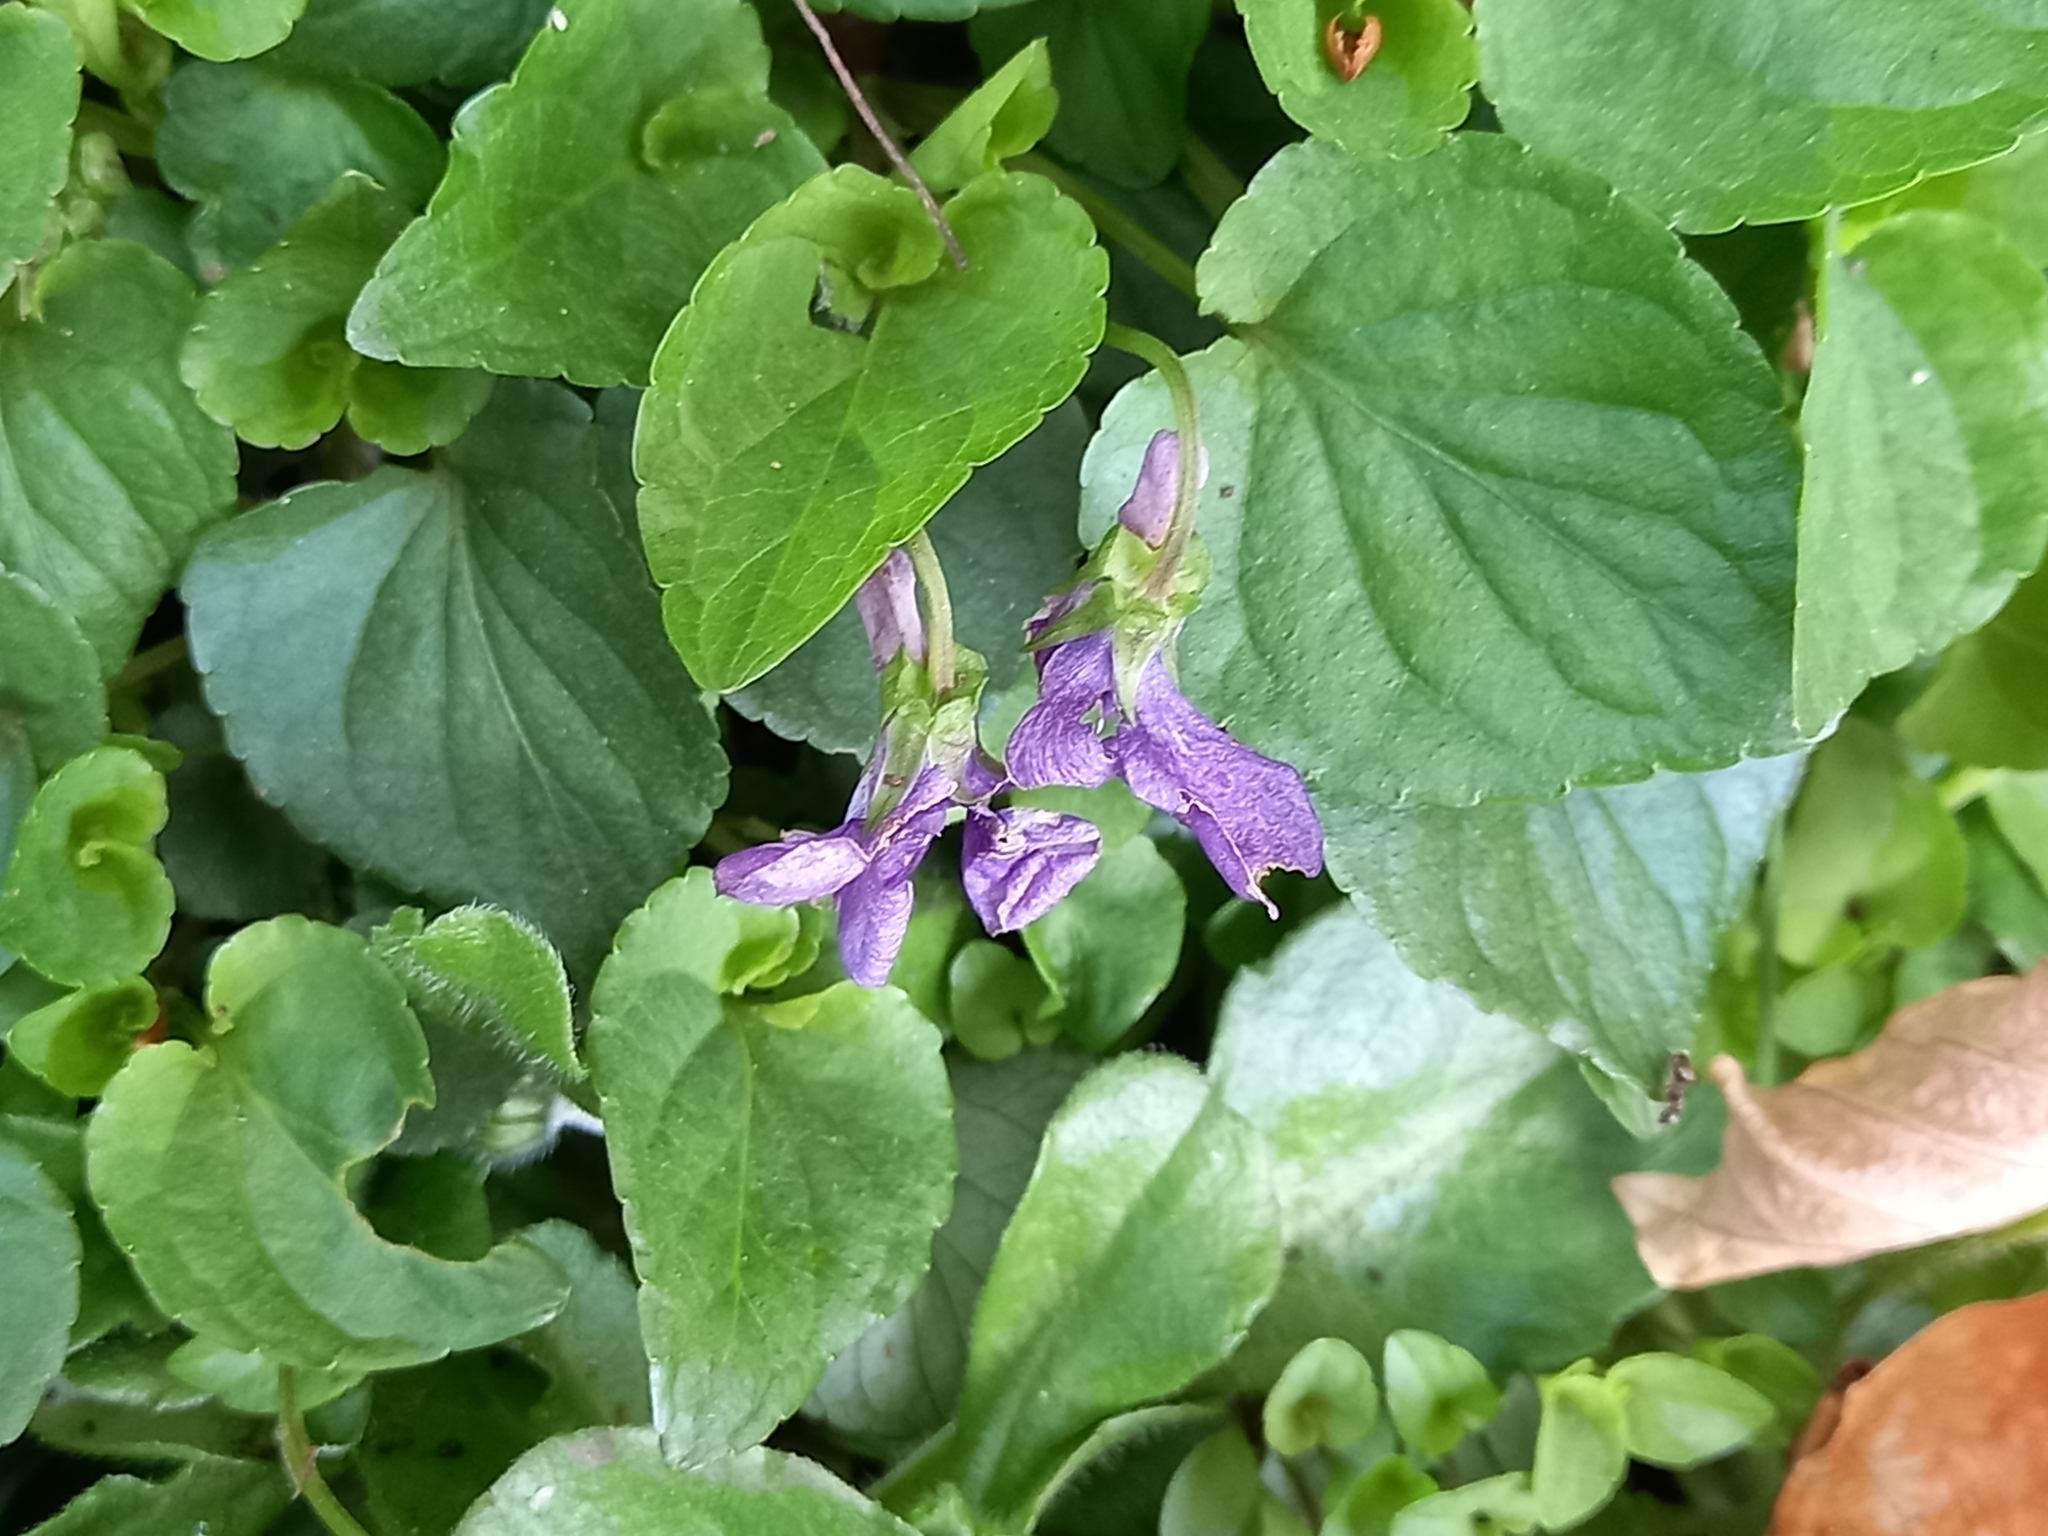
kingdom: Plantae
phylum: Tracheophyta
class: Magnoliopsida
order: Malpighiales
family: Violaceae
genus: Viola
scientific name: Viola riviniana
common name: Common dog-violet
